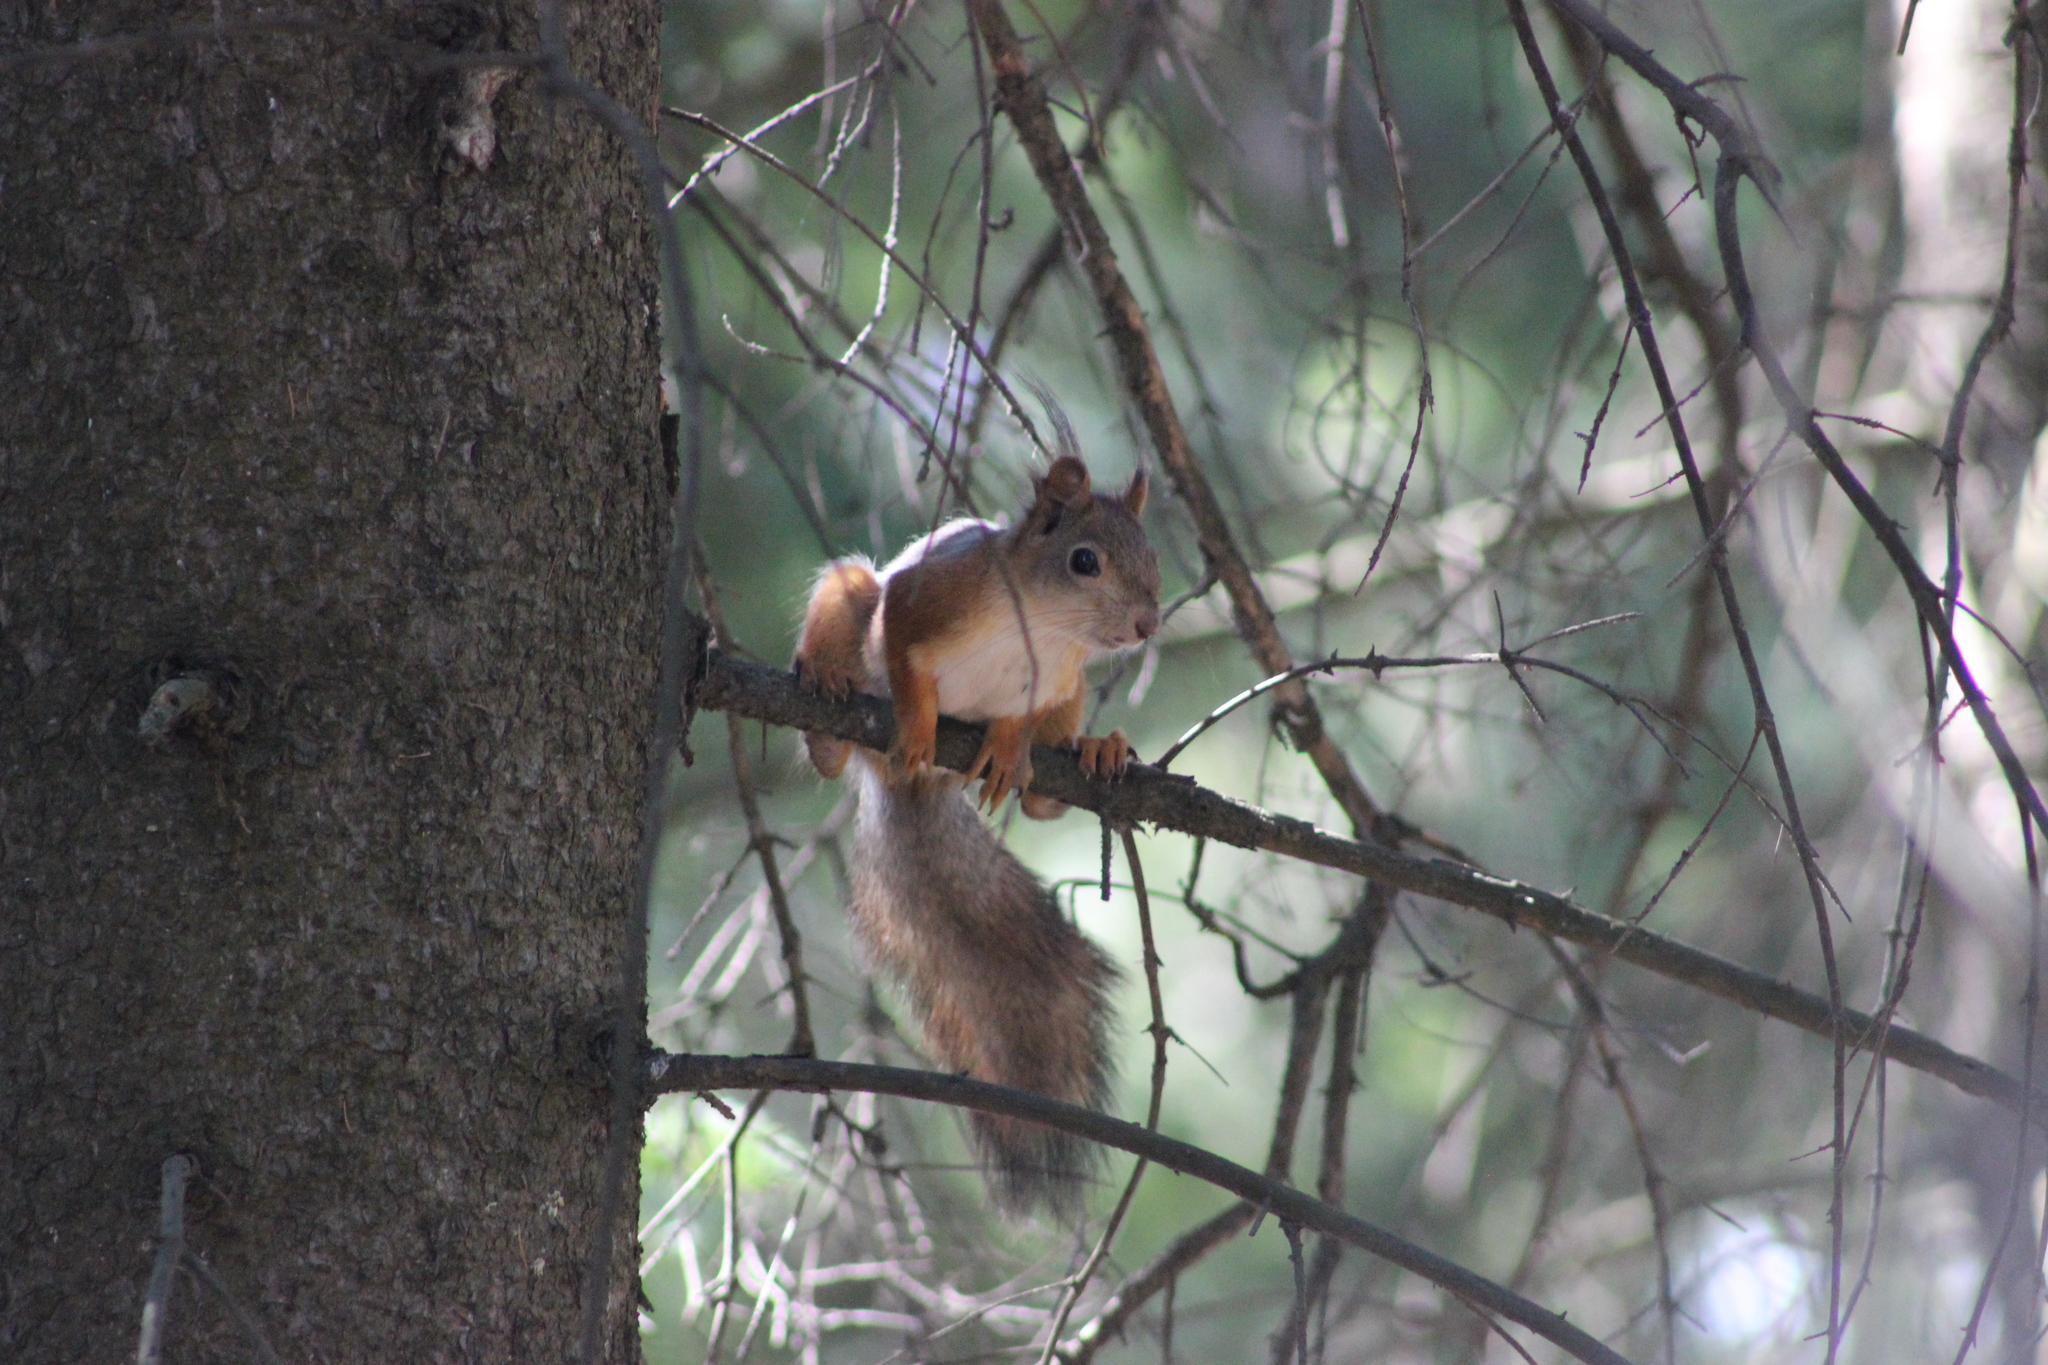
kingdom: Animalia
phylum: Chordata
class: Mammalia
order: Rodentia
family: Sciuridae
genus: Sciurus
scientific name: Sciurus vulgaris
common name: Eurasian red squirrel
